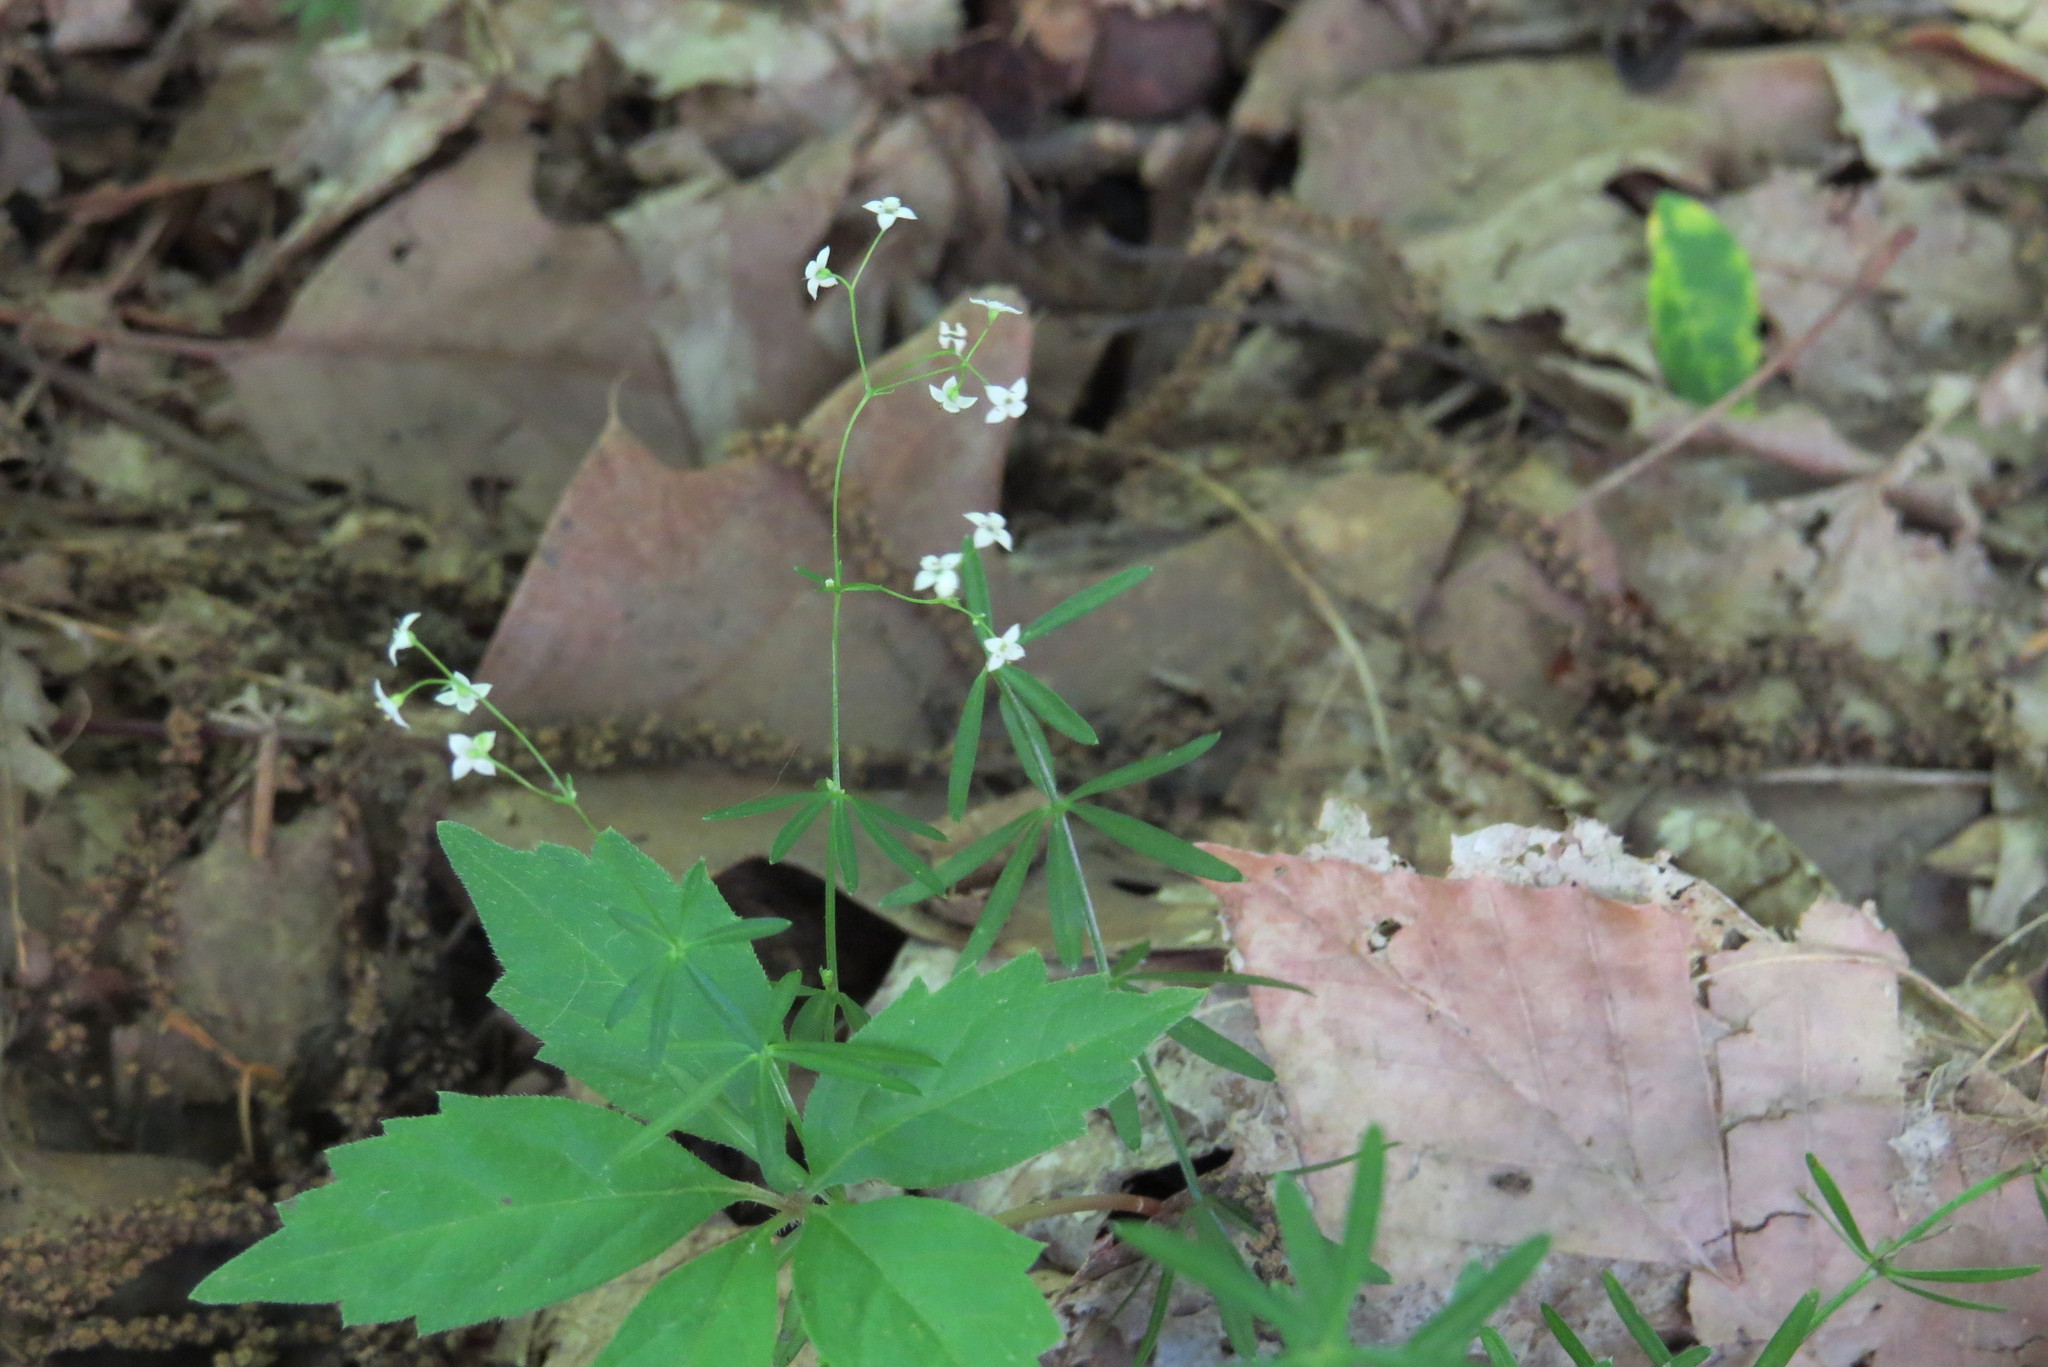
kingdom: Plantae
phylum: Tracheophyta
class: Magnoliopsida
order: Gentianales
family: Rubiaceae
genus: Galium
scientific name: Galium concinnum
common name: Shining bedstraw
